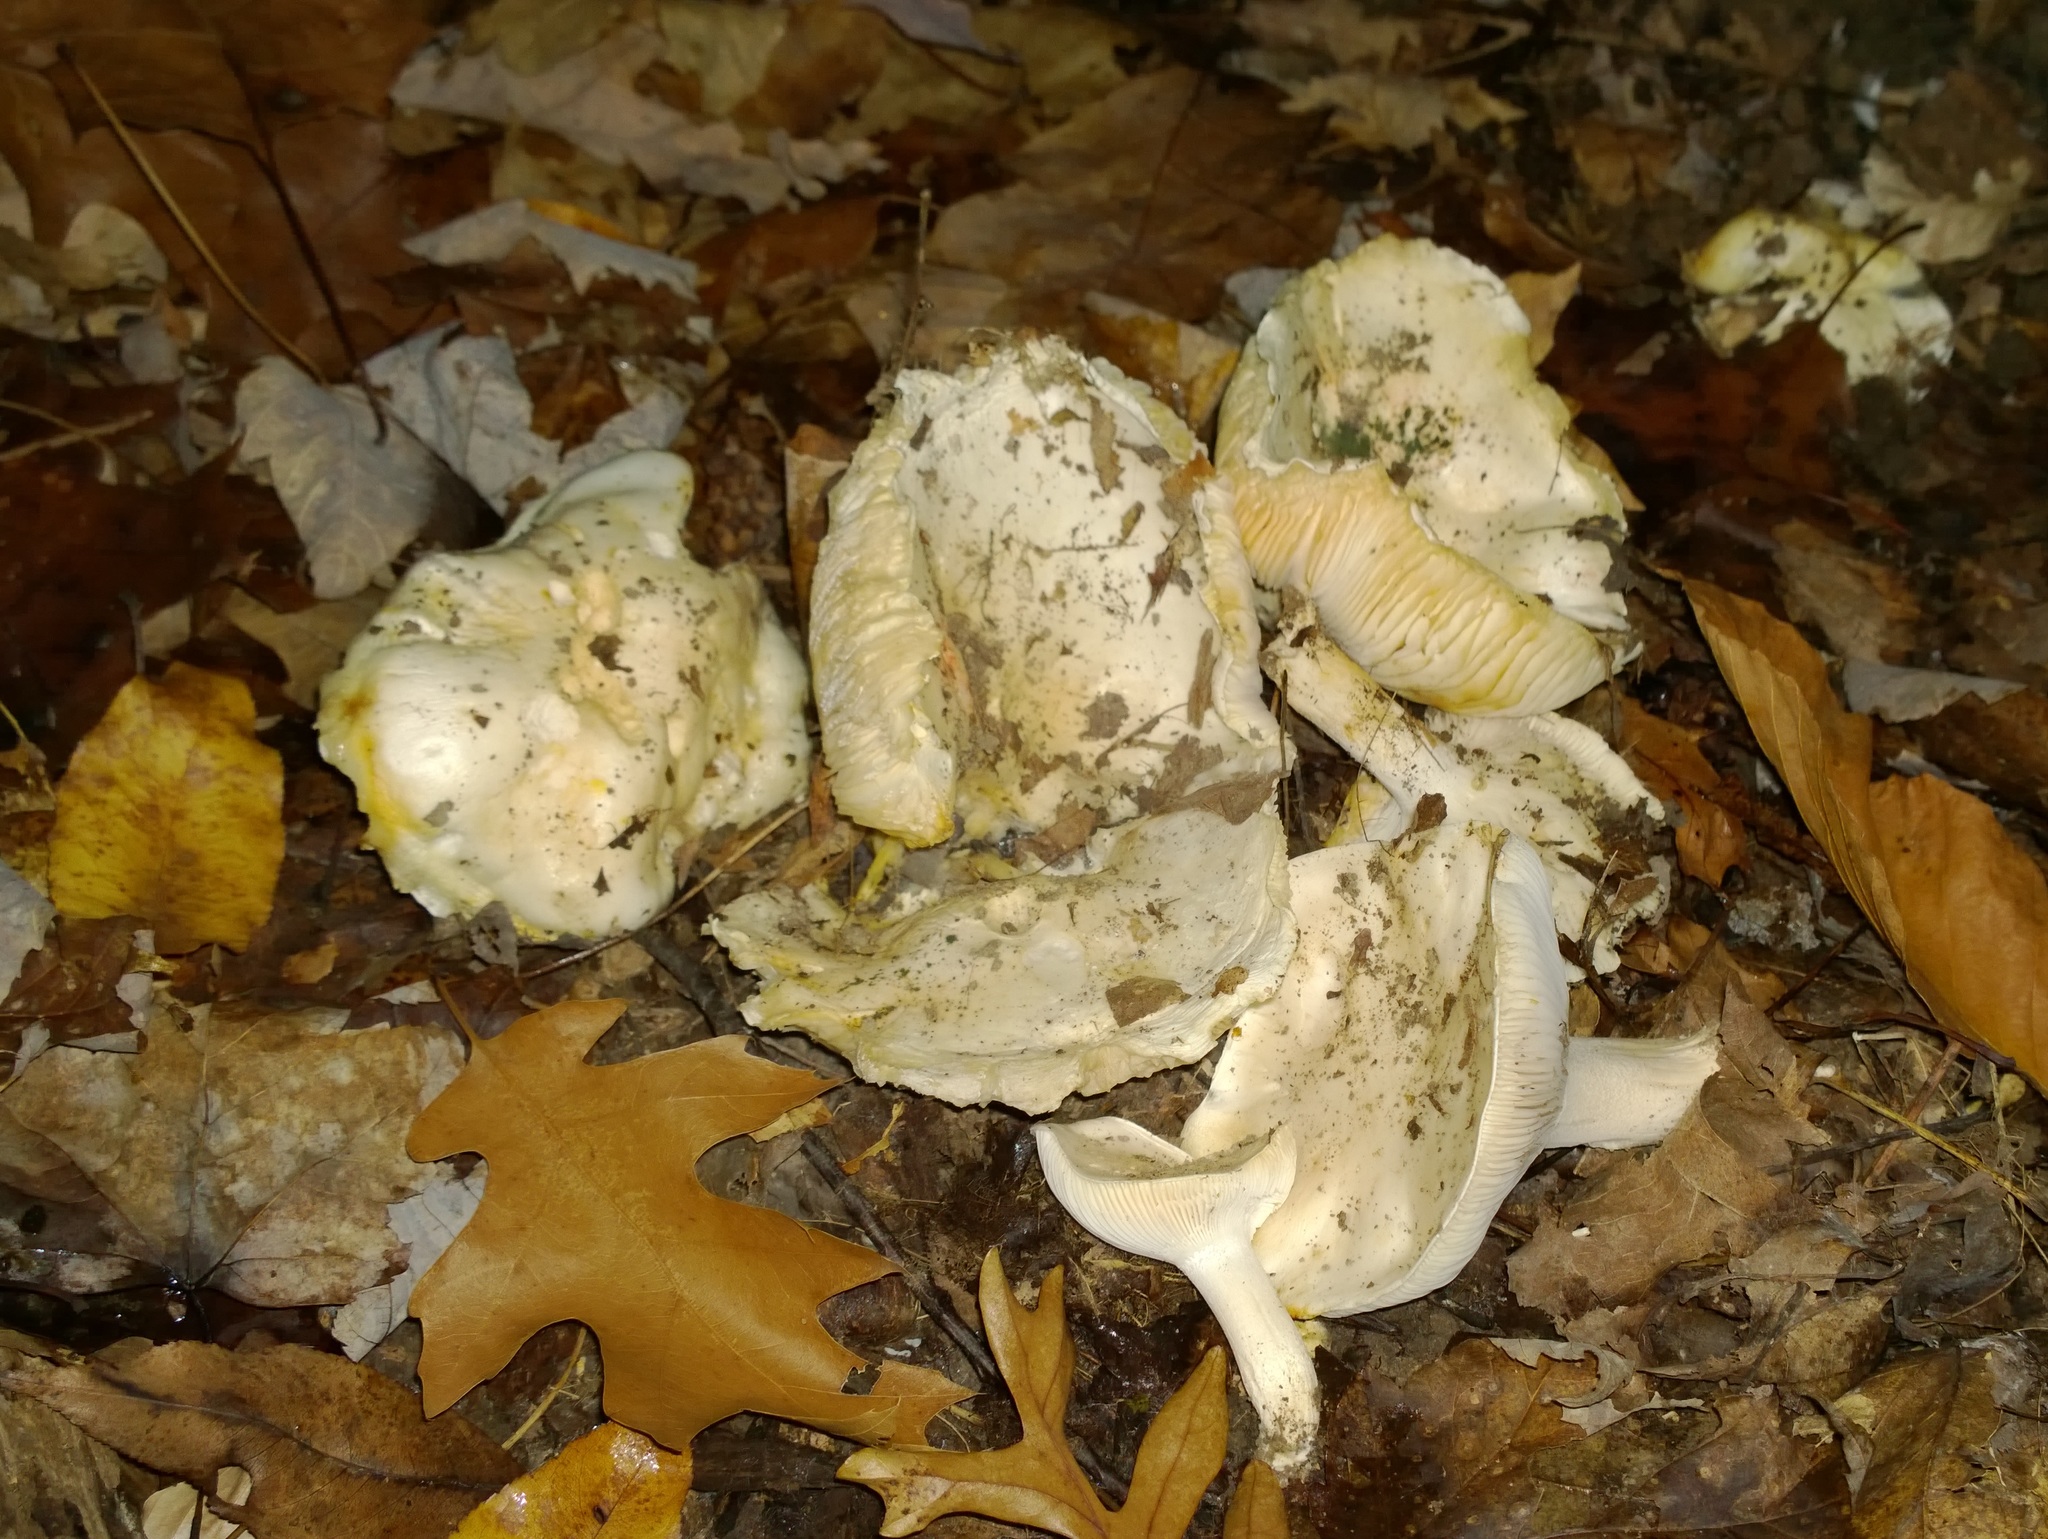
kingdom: Fungi
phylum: Basidiomycota
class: Agaricomycetes
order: Agaricales
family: Hygrophoraceae
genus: Hygrophorus
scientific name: Hygrophorus sordidus
